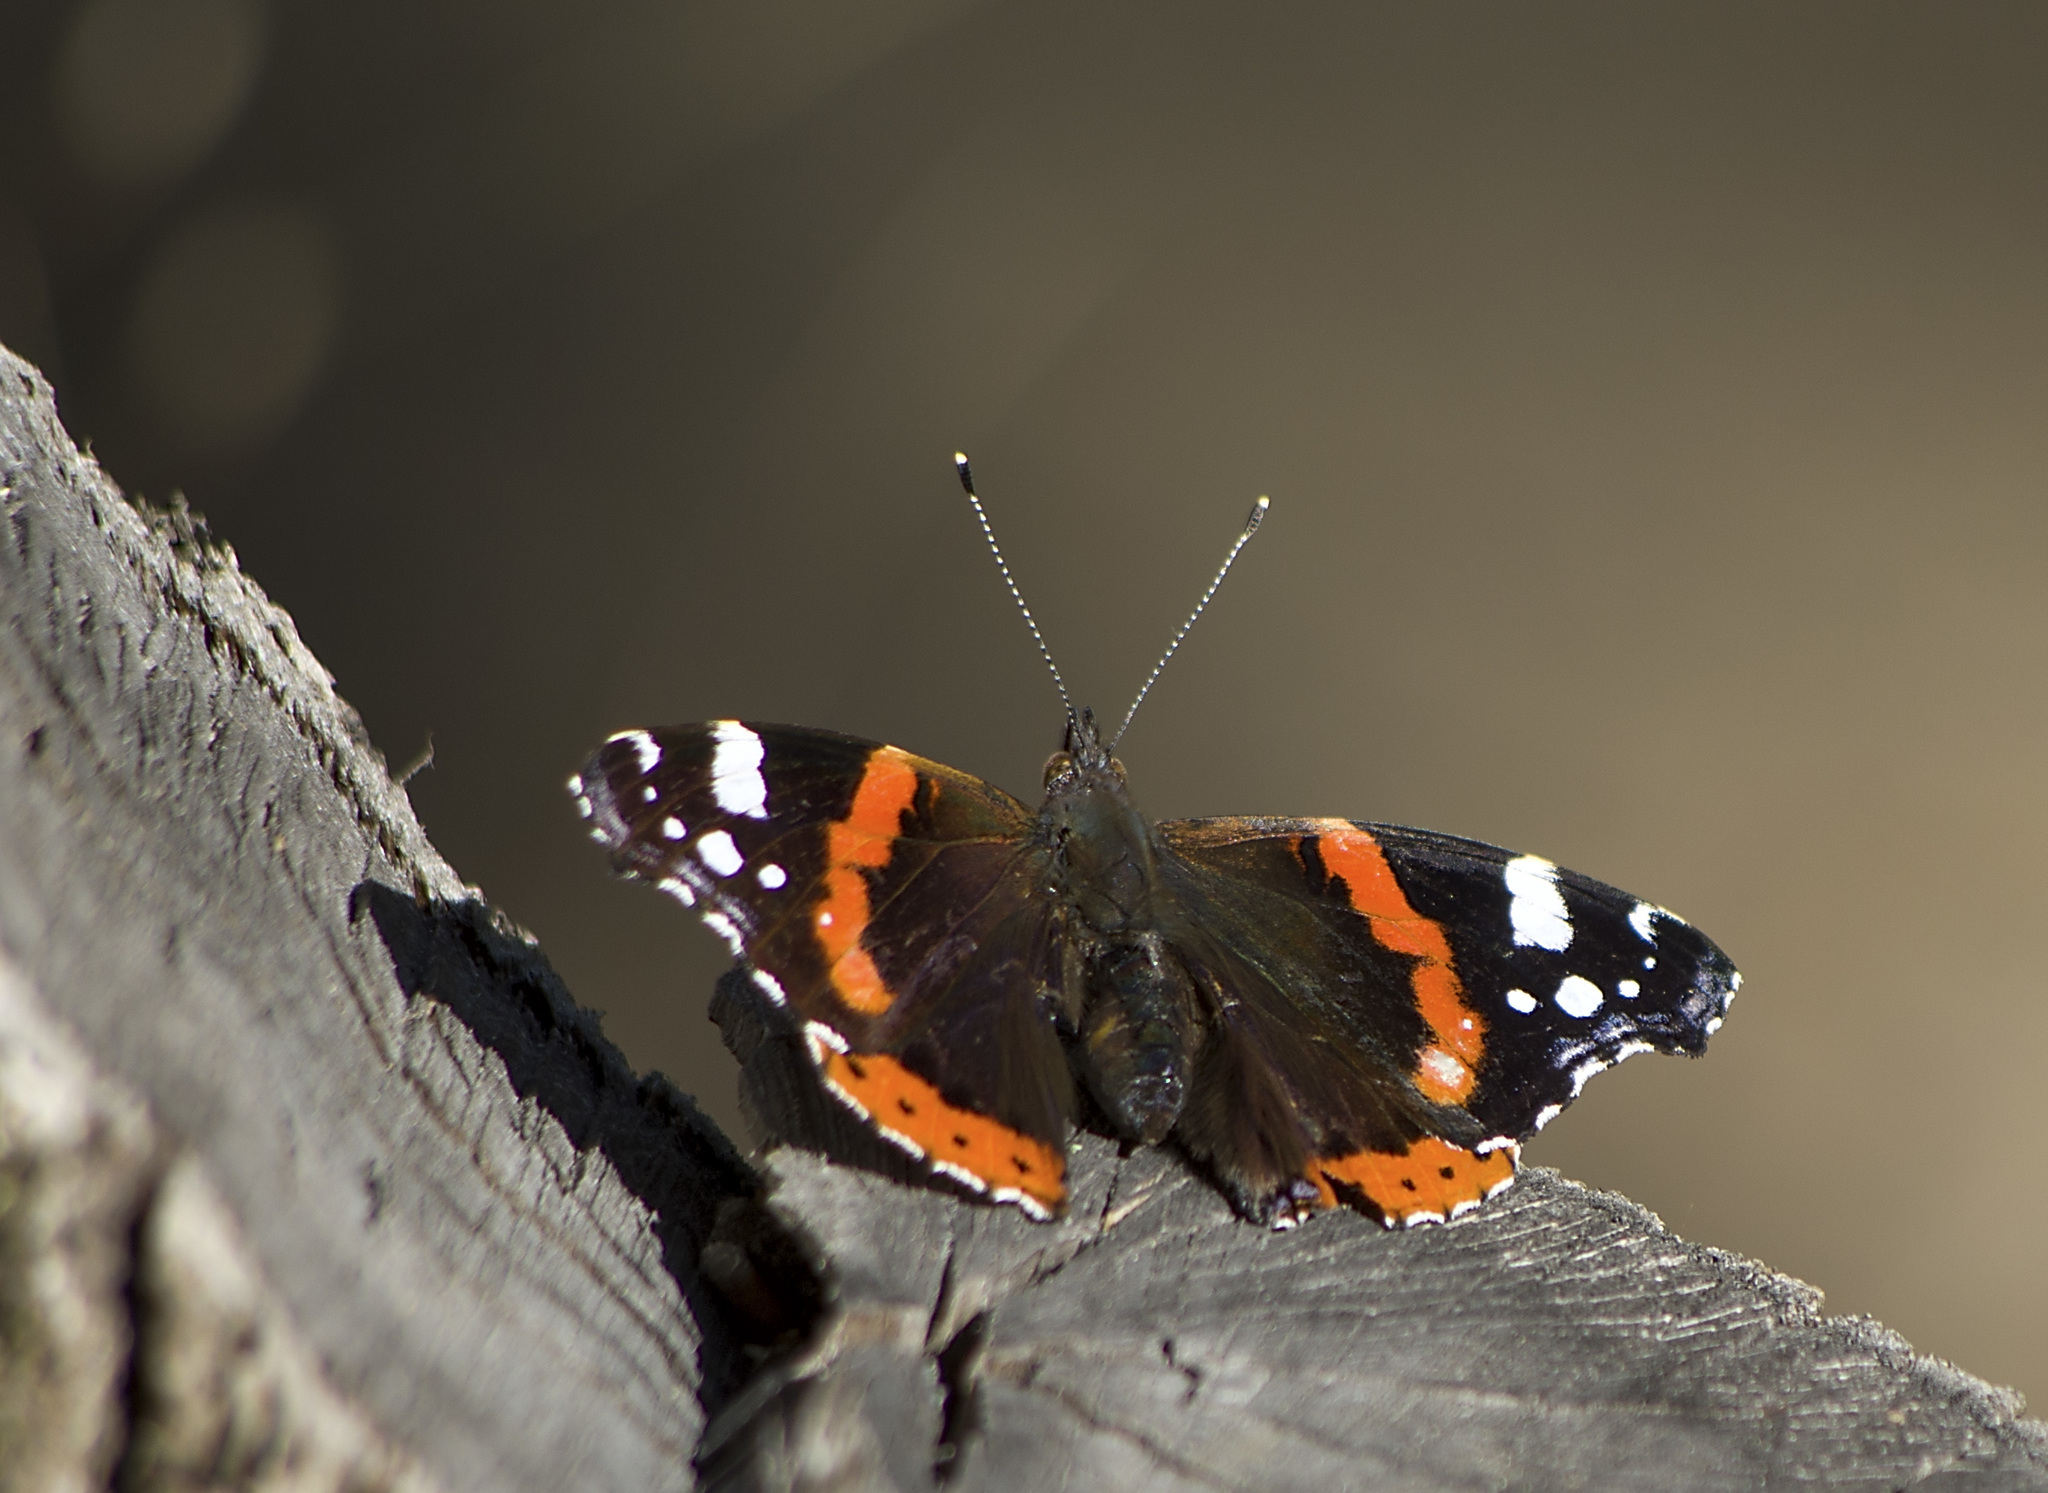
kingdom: Animalia
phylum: Arthropoda
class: Insecta
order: Lepidoptera
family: Nymphalidae
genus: Vanessa
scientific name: Vanessa atalanta
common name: Red admiral
